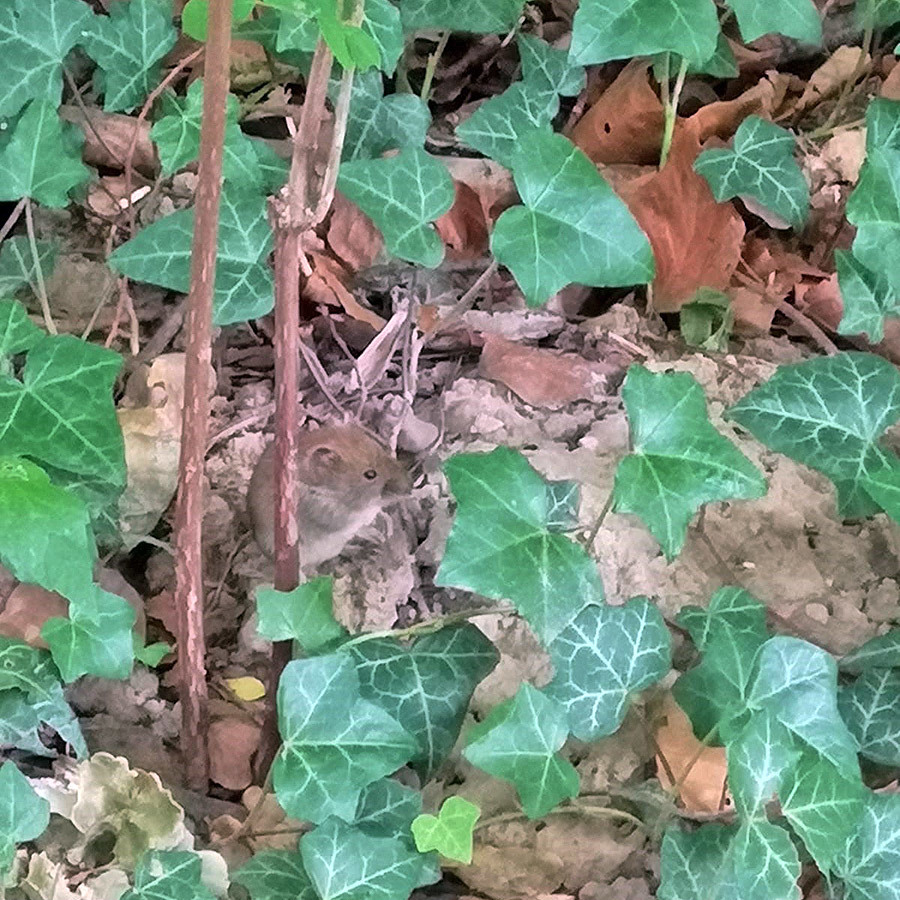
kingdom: Animalia
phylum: Chordata
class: Mammalia
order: Rodentia
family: Cricetidae
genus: Myodes
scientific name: Myodes glareolus
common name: Bank vole
